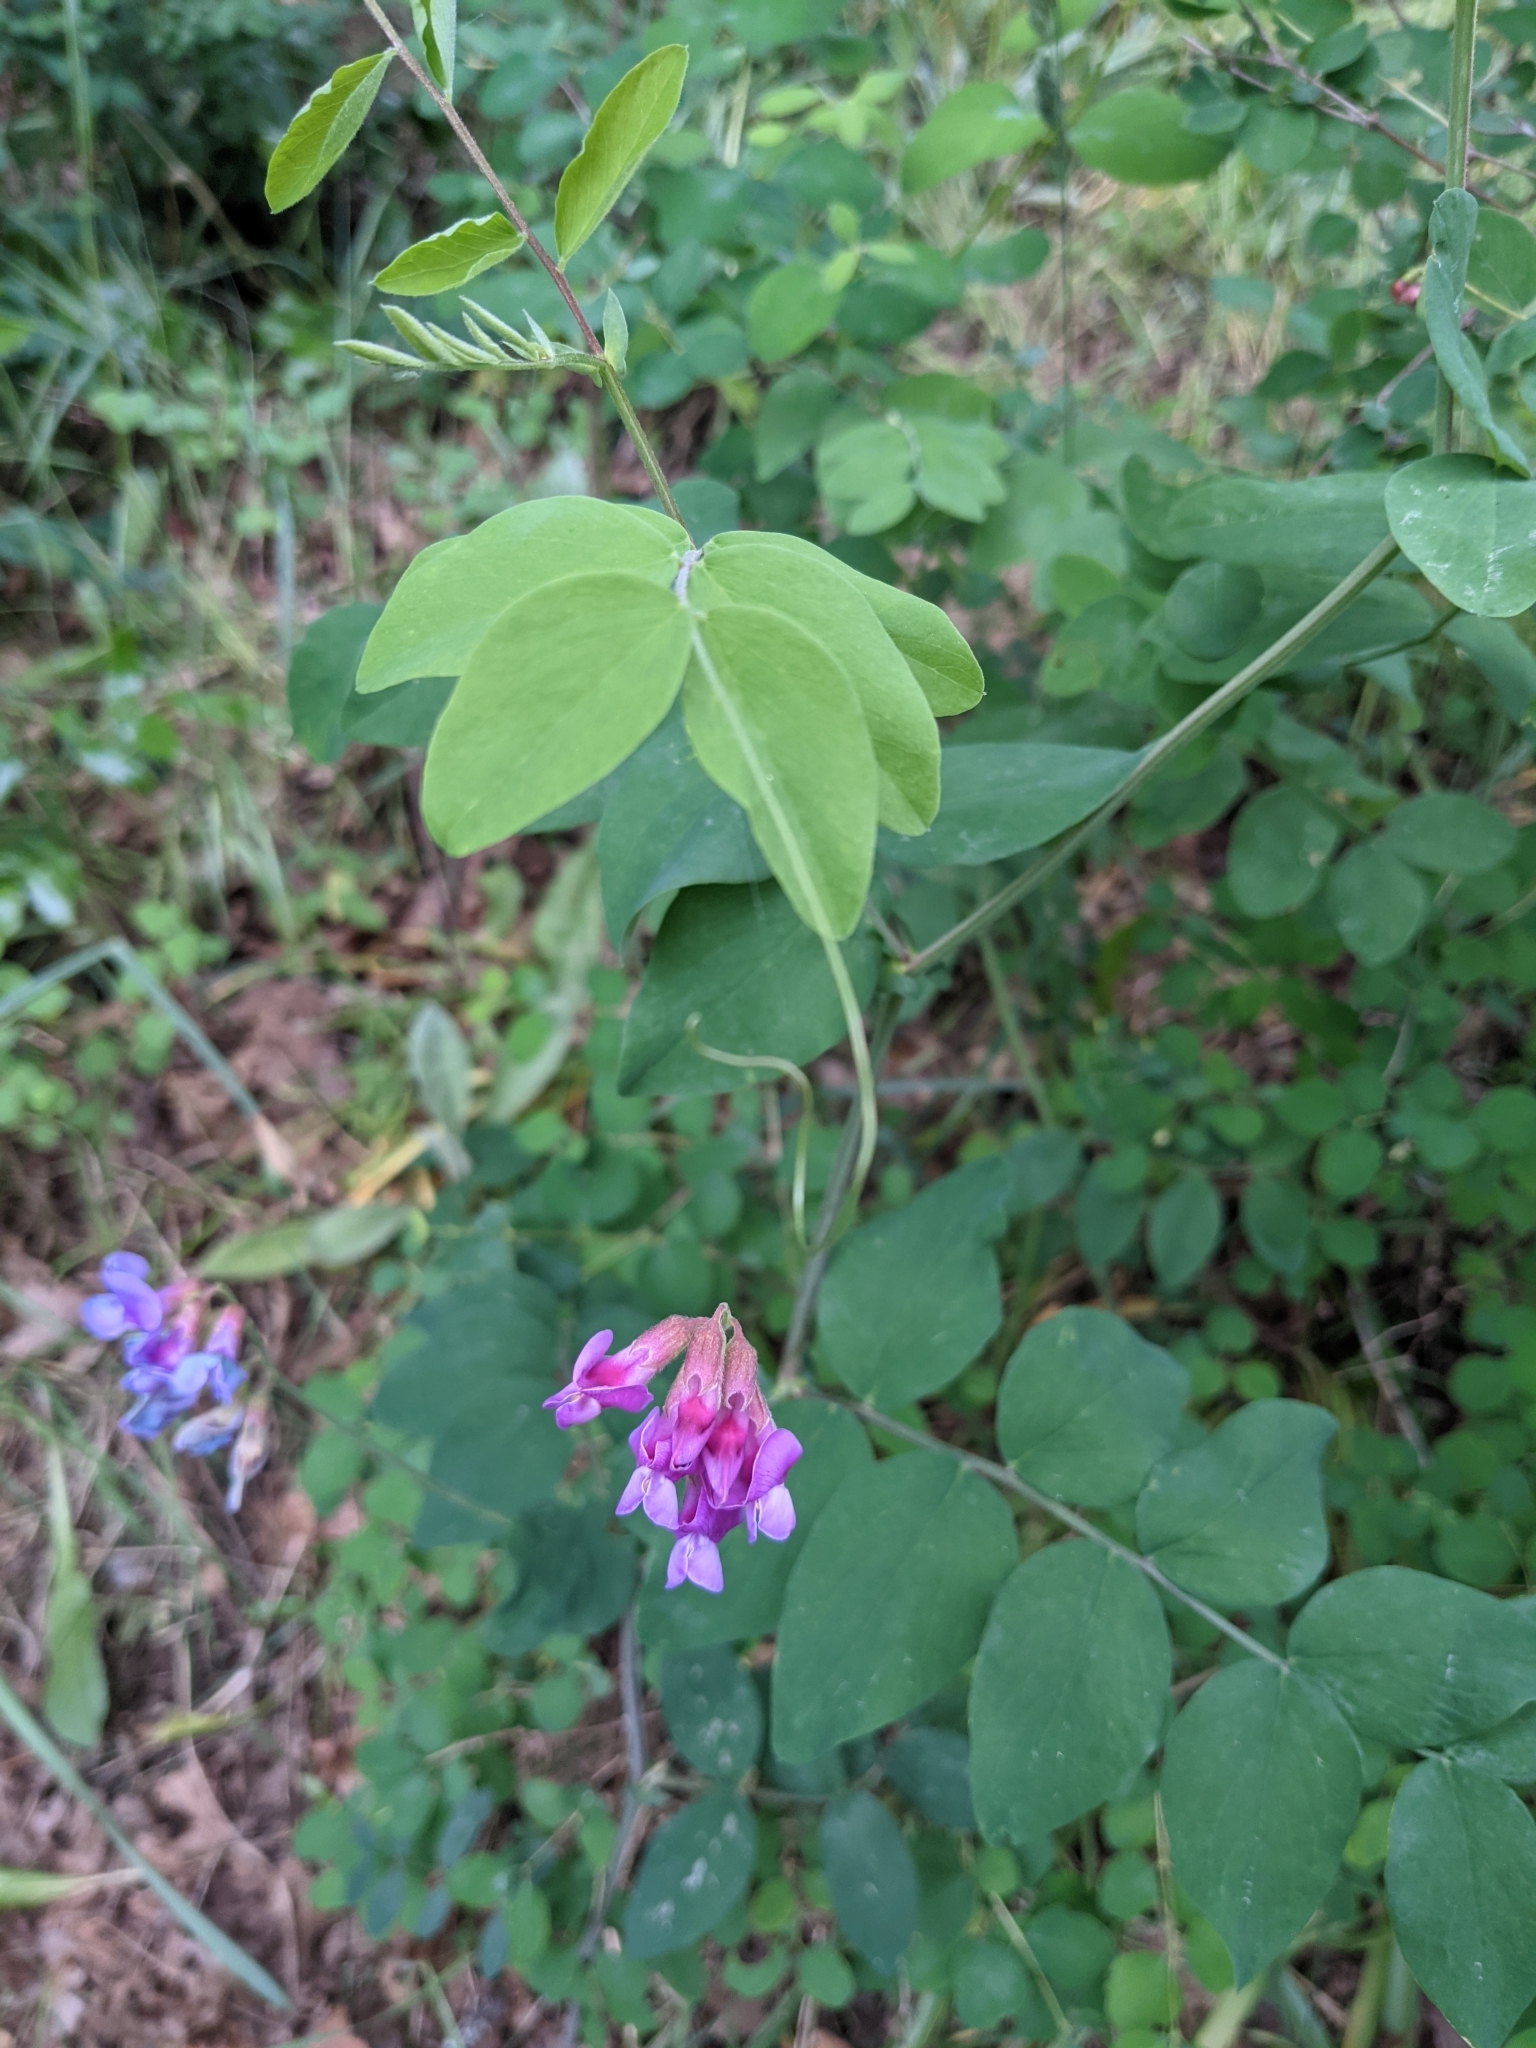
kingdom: Plantae
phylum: Tracheophyta
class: Magnoliopsida
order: Fabales
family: Fabaceae
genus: Lathyrus
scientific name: Lathyrus nevadensis
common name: Sierra nevada peavine
